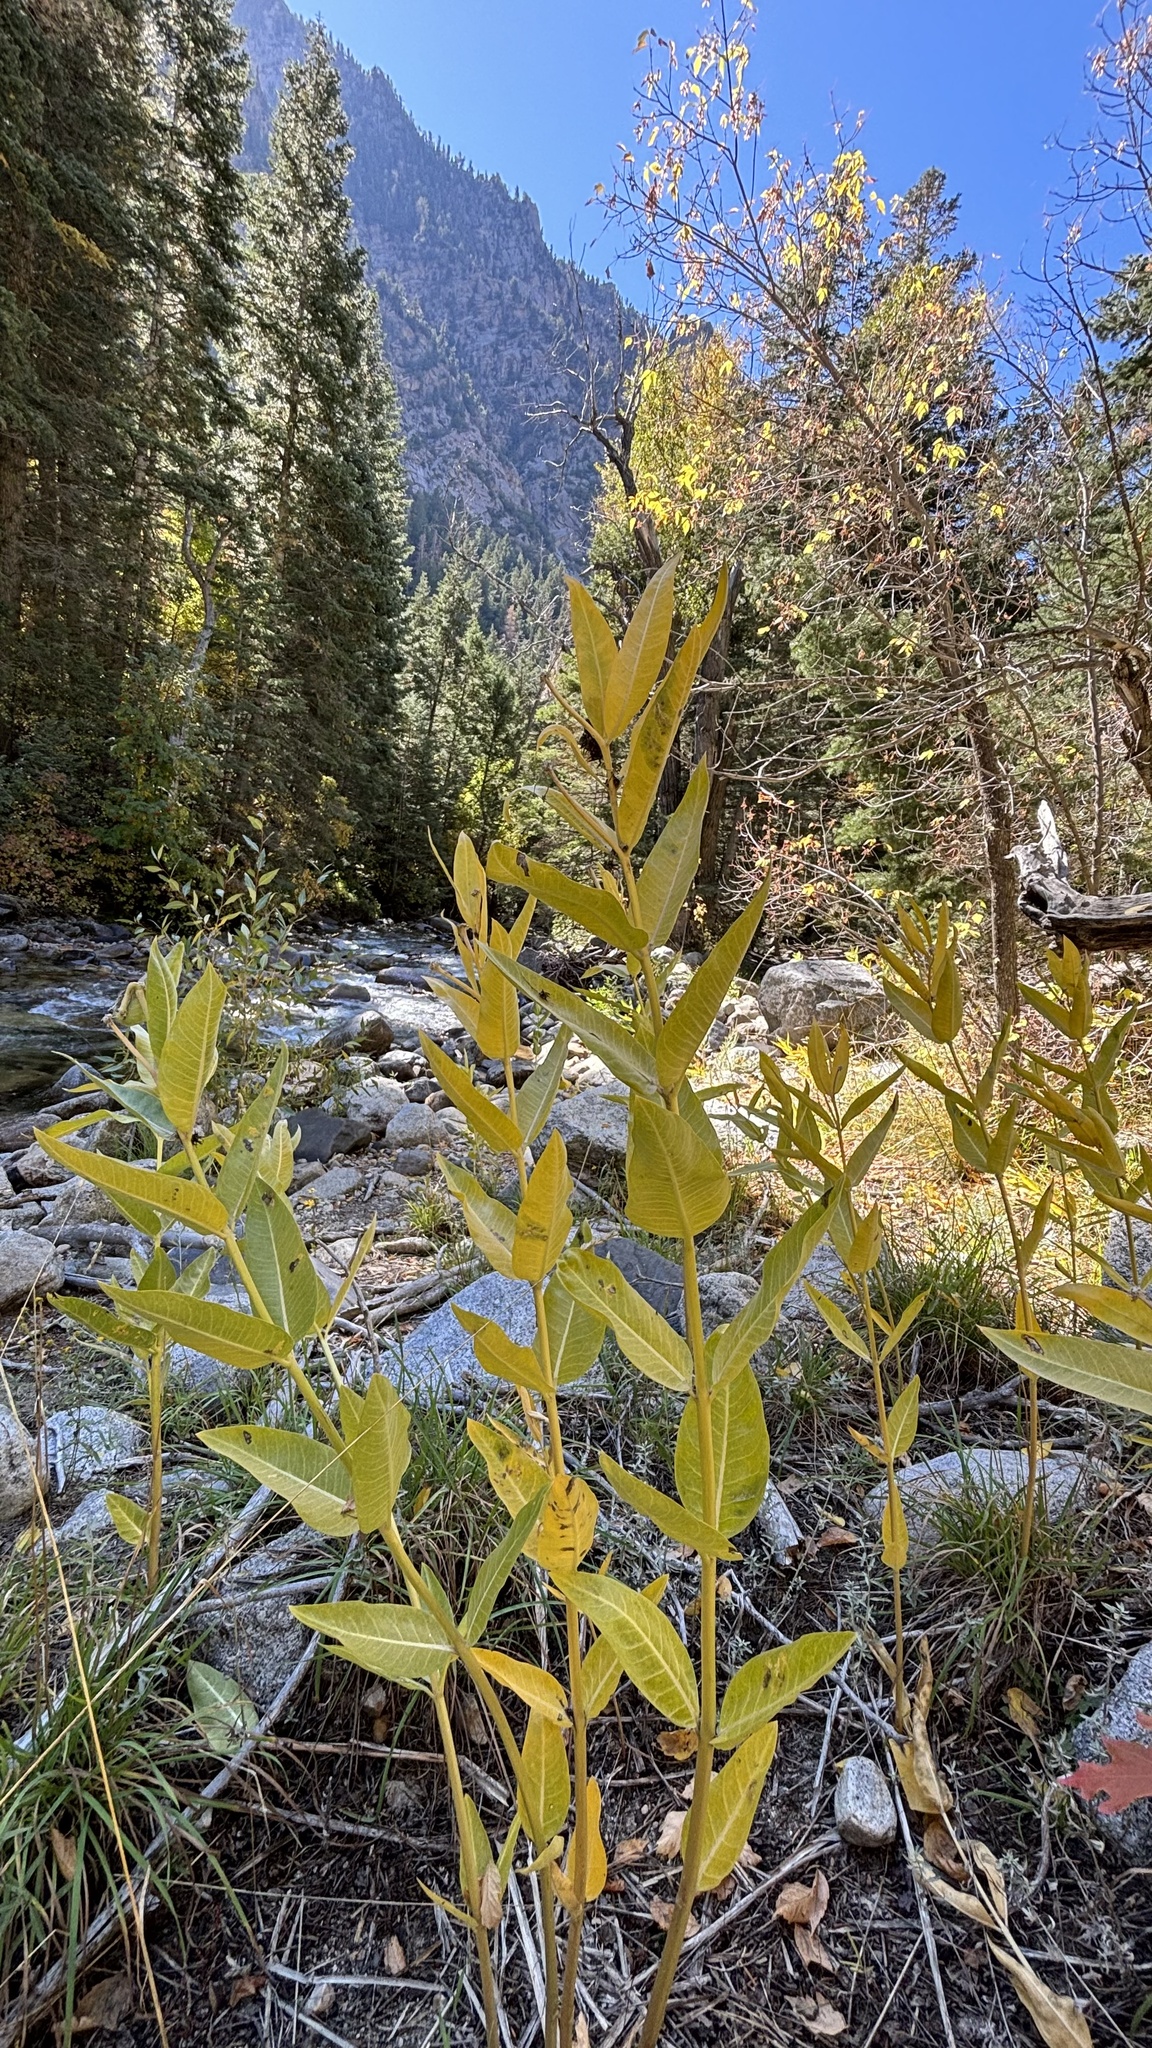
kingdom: Plantae
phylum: Tracheophyta
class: Magnoliopsida
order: Gentianales
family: Apocynaceae
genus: Asclepias
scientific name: Asclepias speciosa
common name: Showy milkweed
